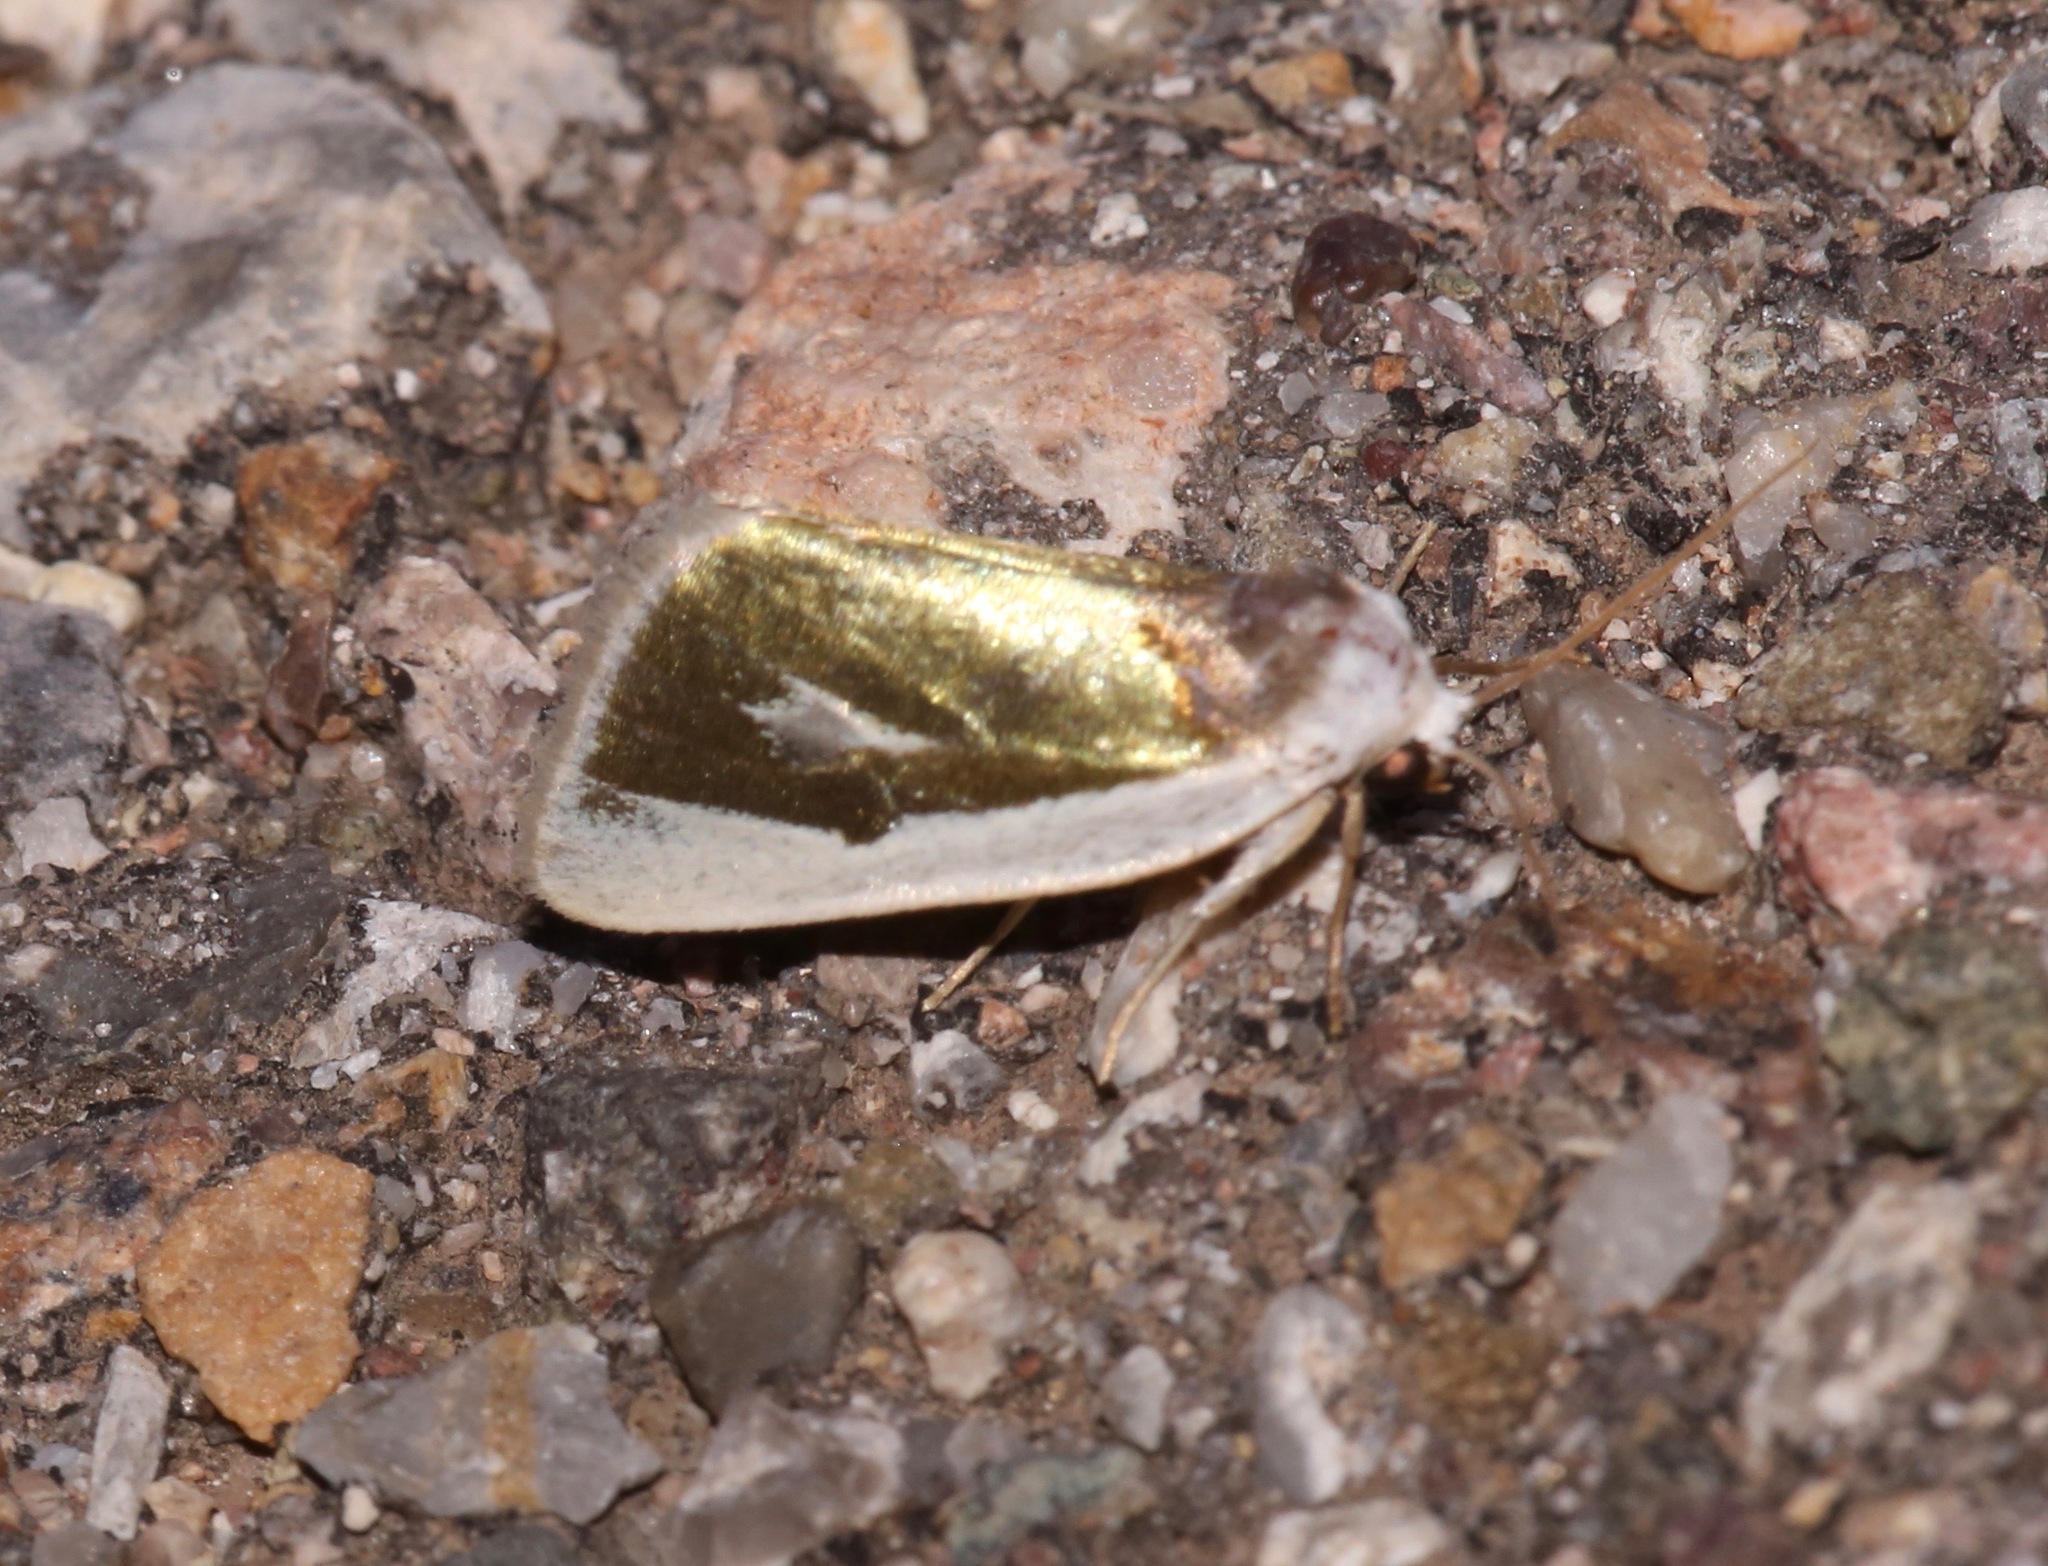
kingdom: Animalia
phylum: Arthropoda
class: Insecta
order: Lepidoptera
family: Noctuidae
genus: Neumoegenia
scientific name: Neumoegenia poetica
